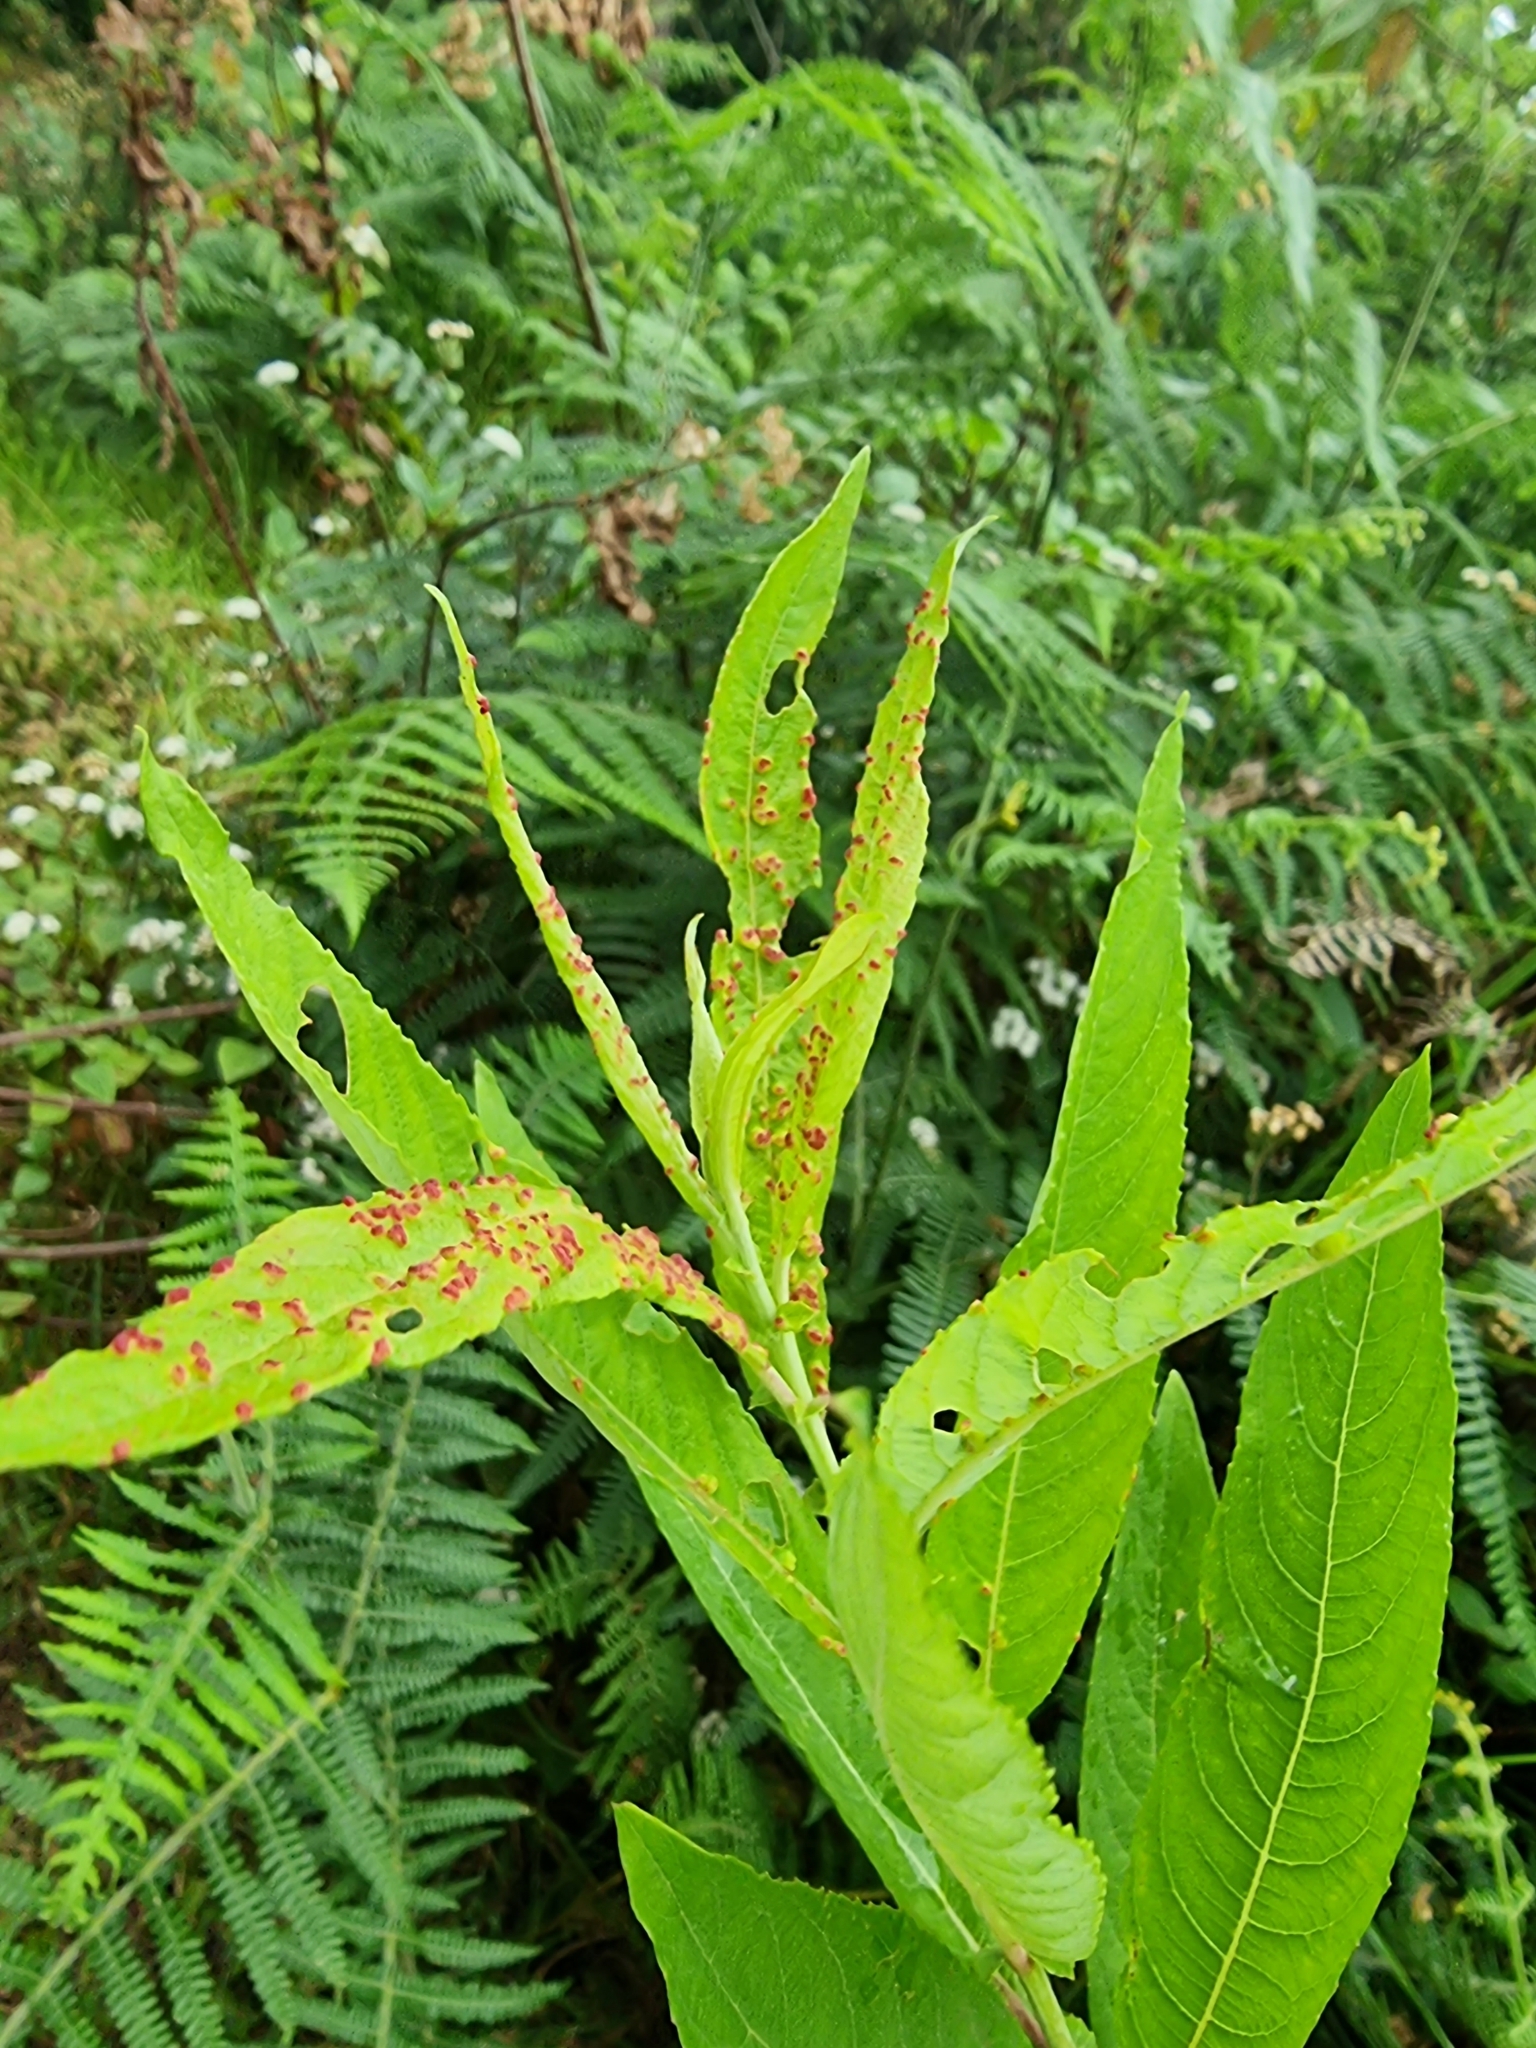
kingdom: Plantae
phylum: Tracheophyta
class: Magnoliopsida
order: Malpighiales
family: Salicaceae
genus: Salix
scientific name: Salix canariensis
